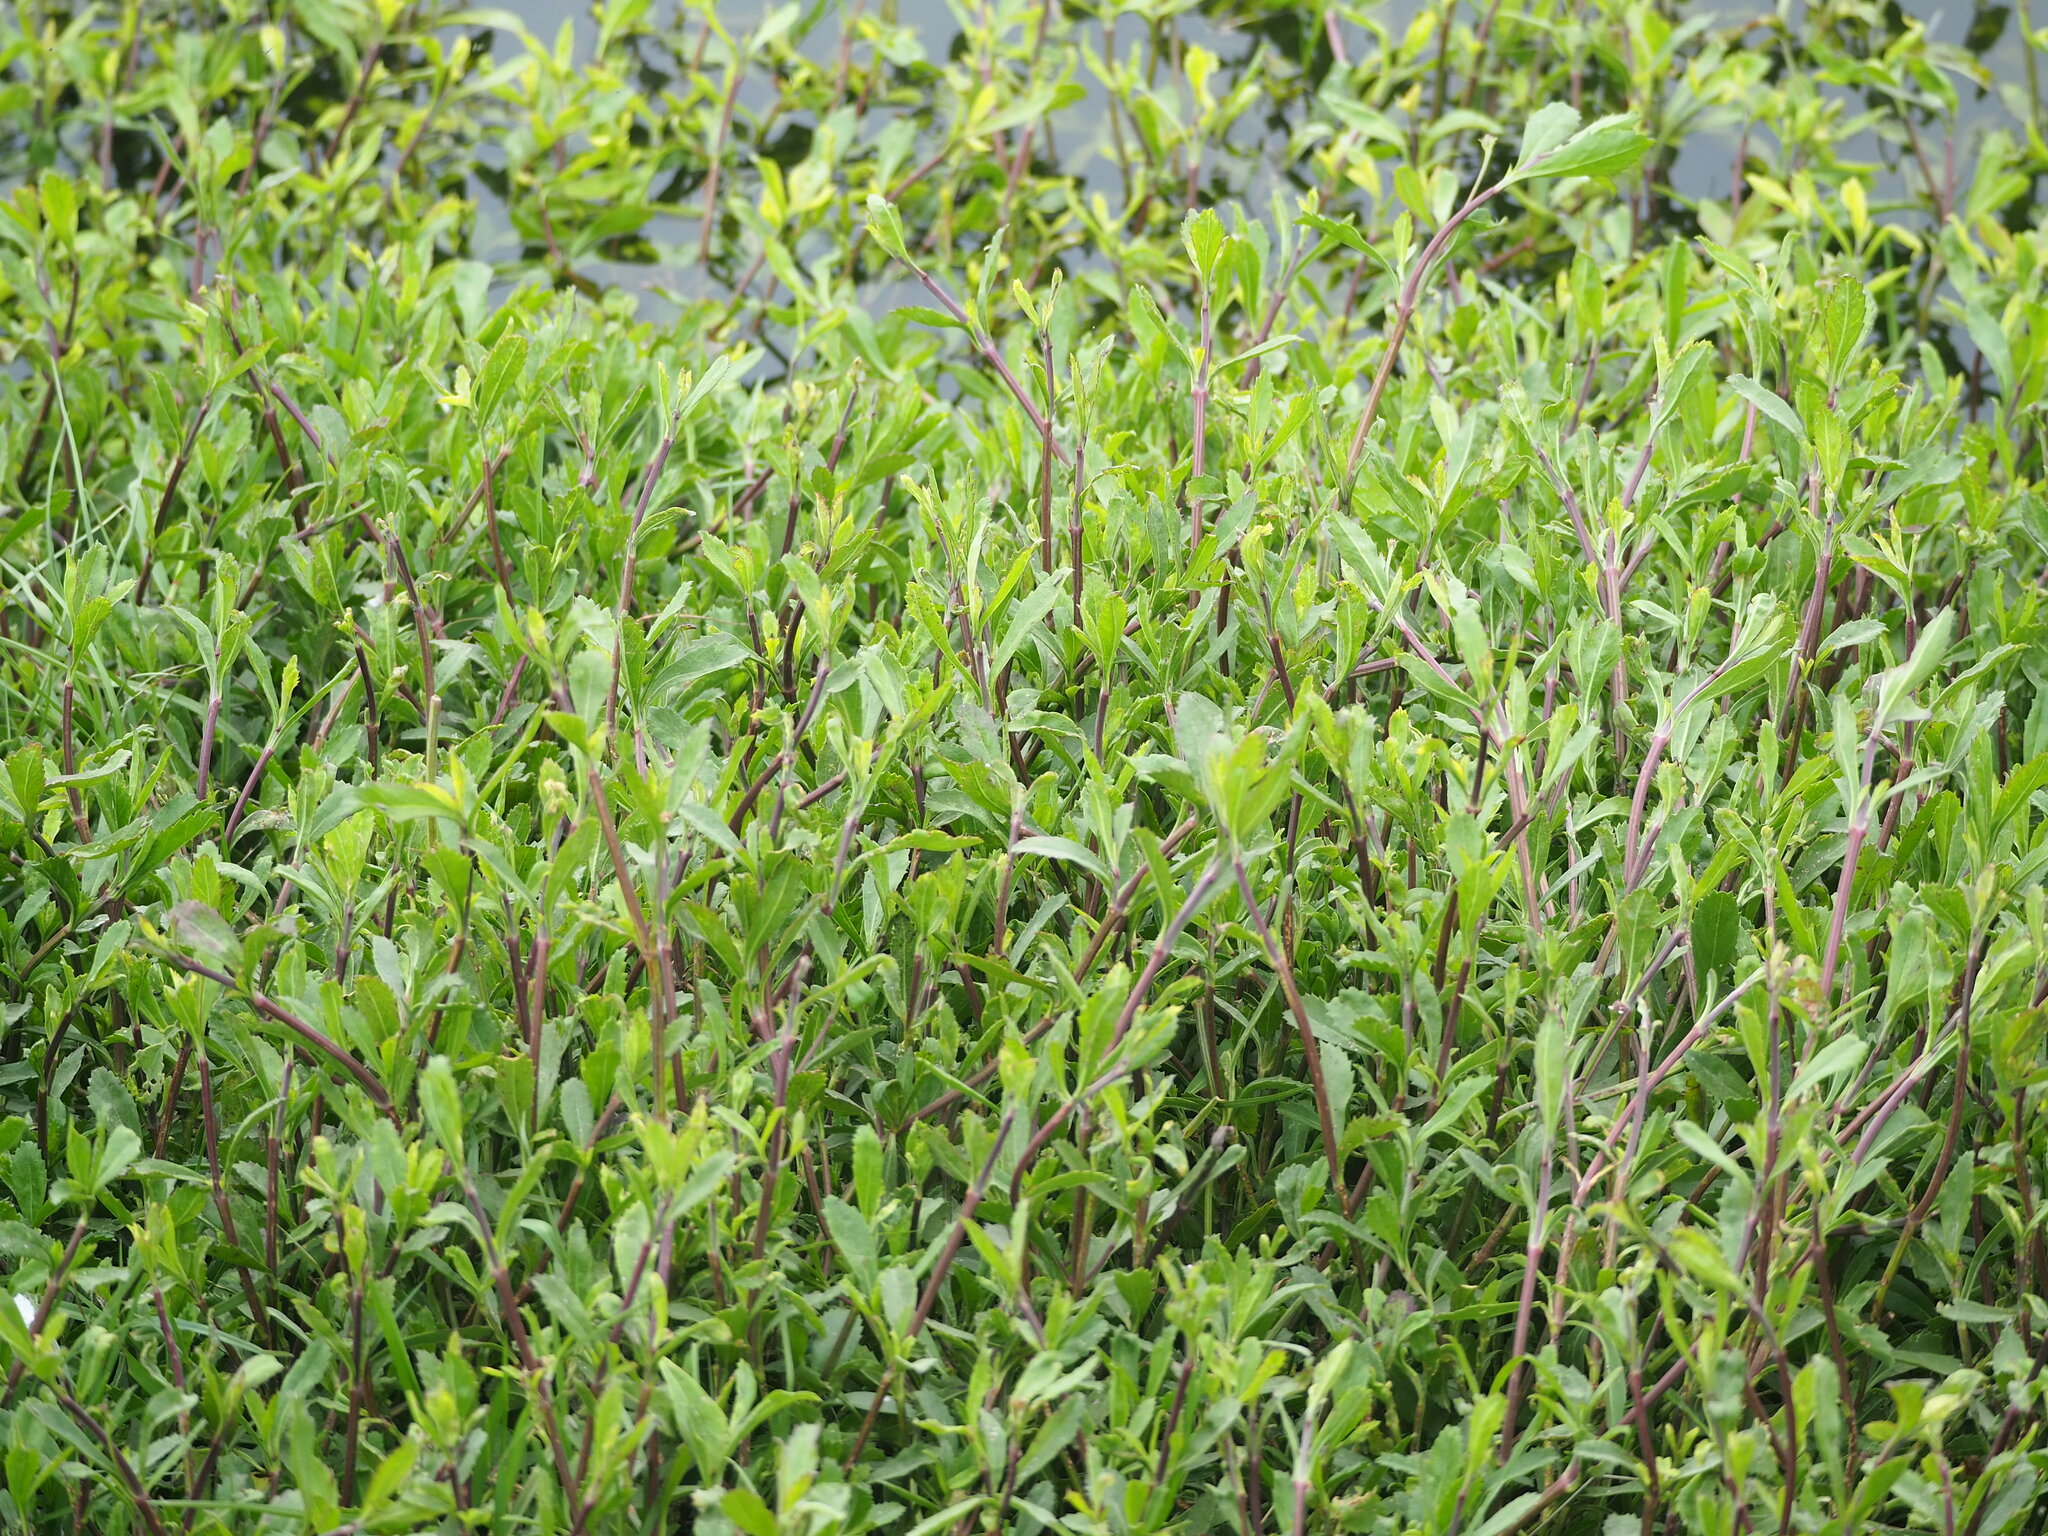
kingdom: Plantae
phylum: Tracheophyta
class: Magnoliopsida
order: Lamiales
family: Verbenaceae
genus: Phyla
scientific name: Phyla nodiflora
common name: Frogfruit
